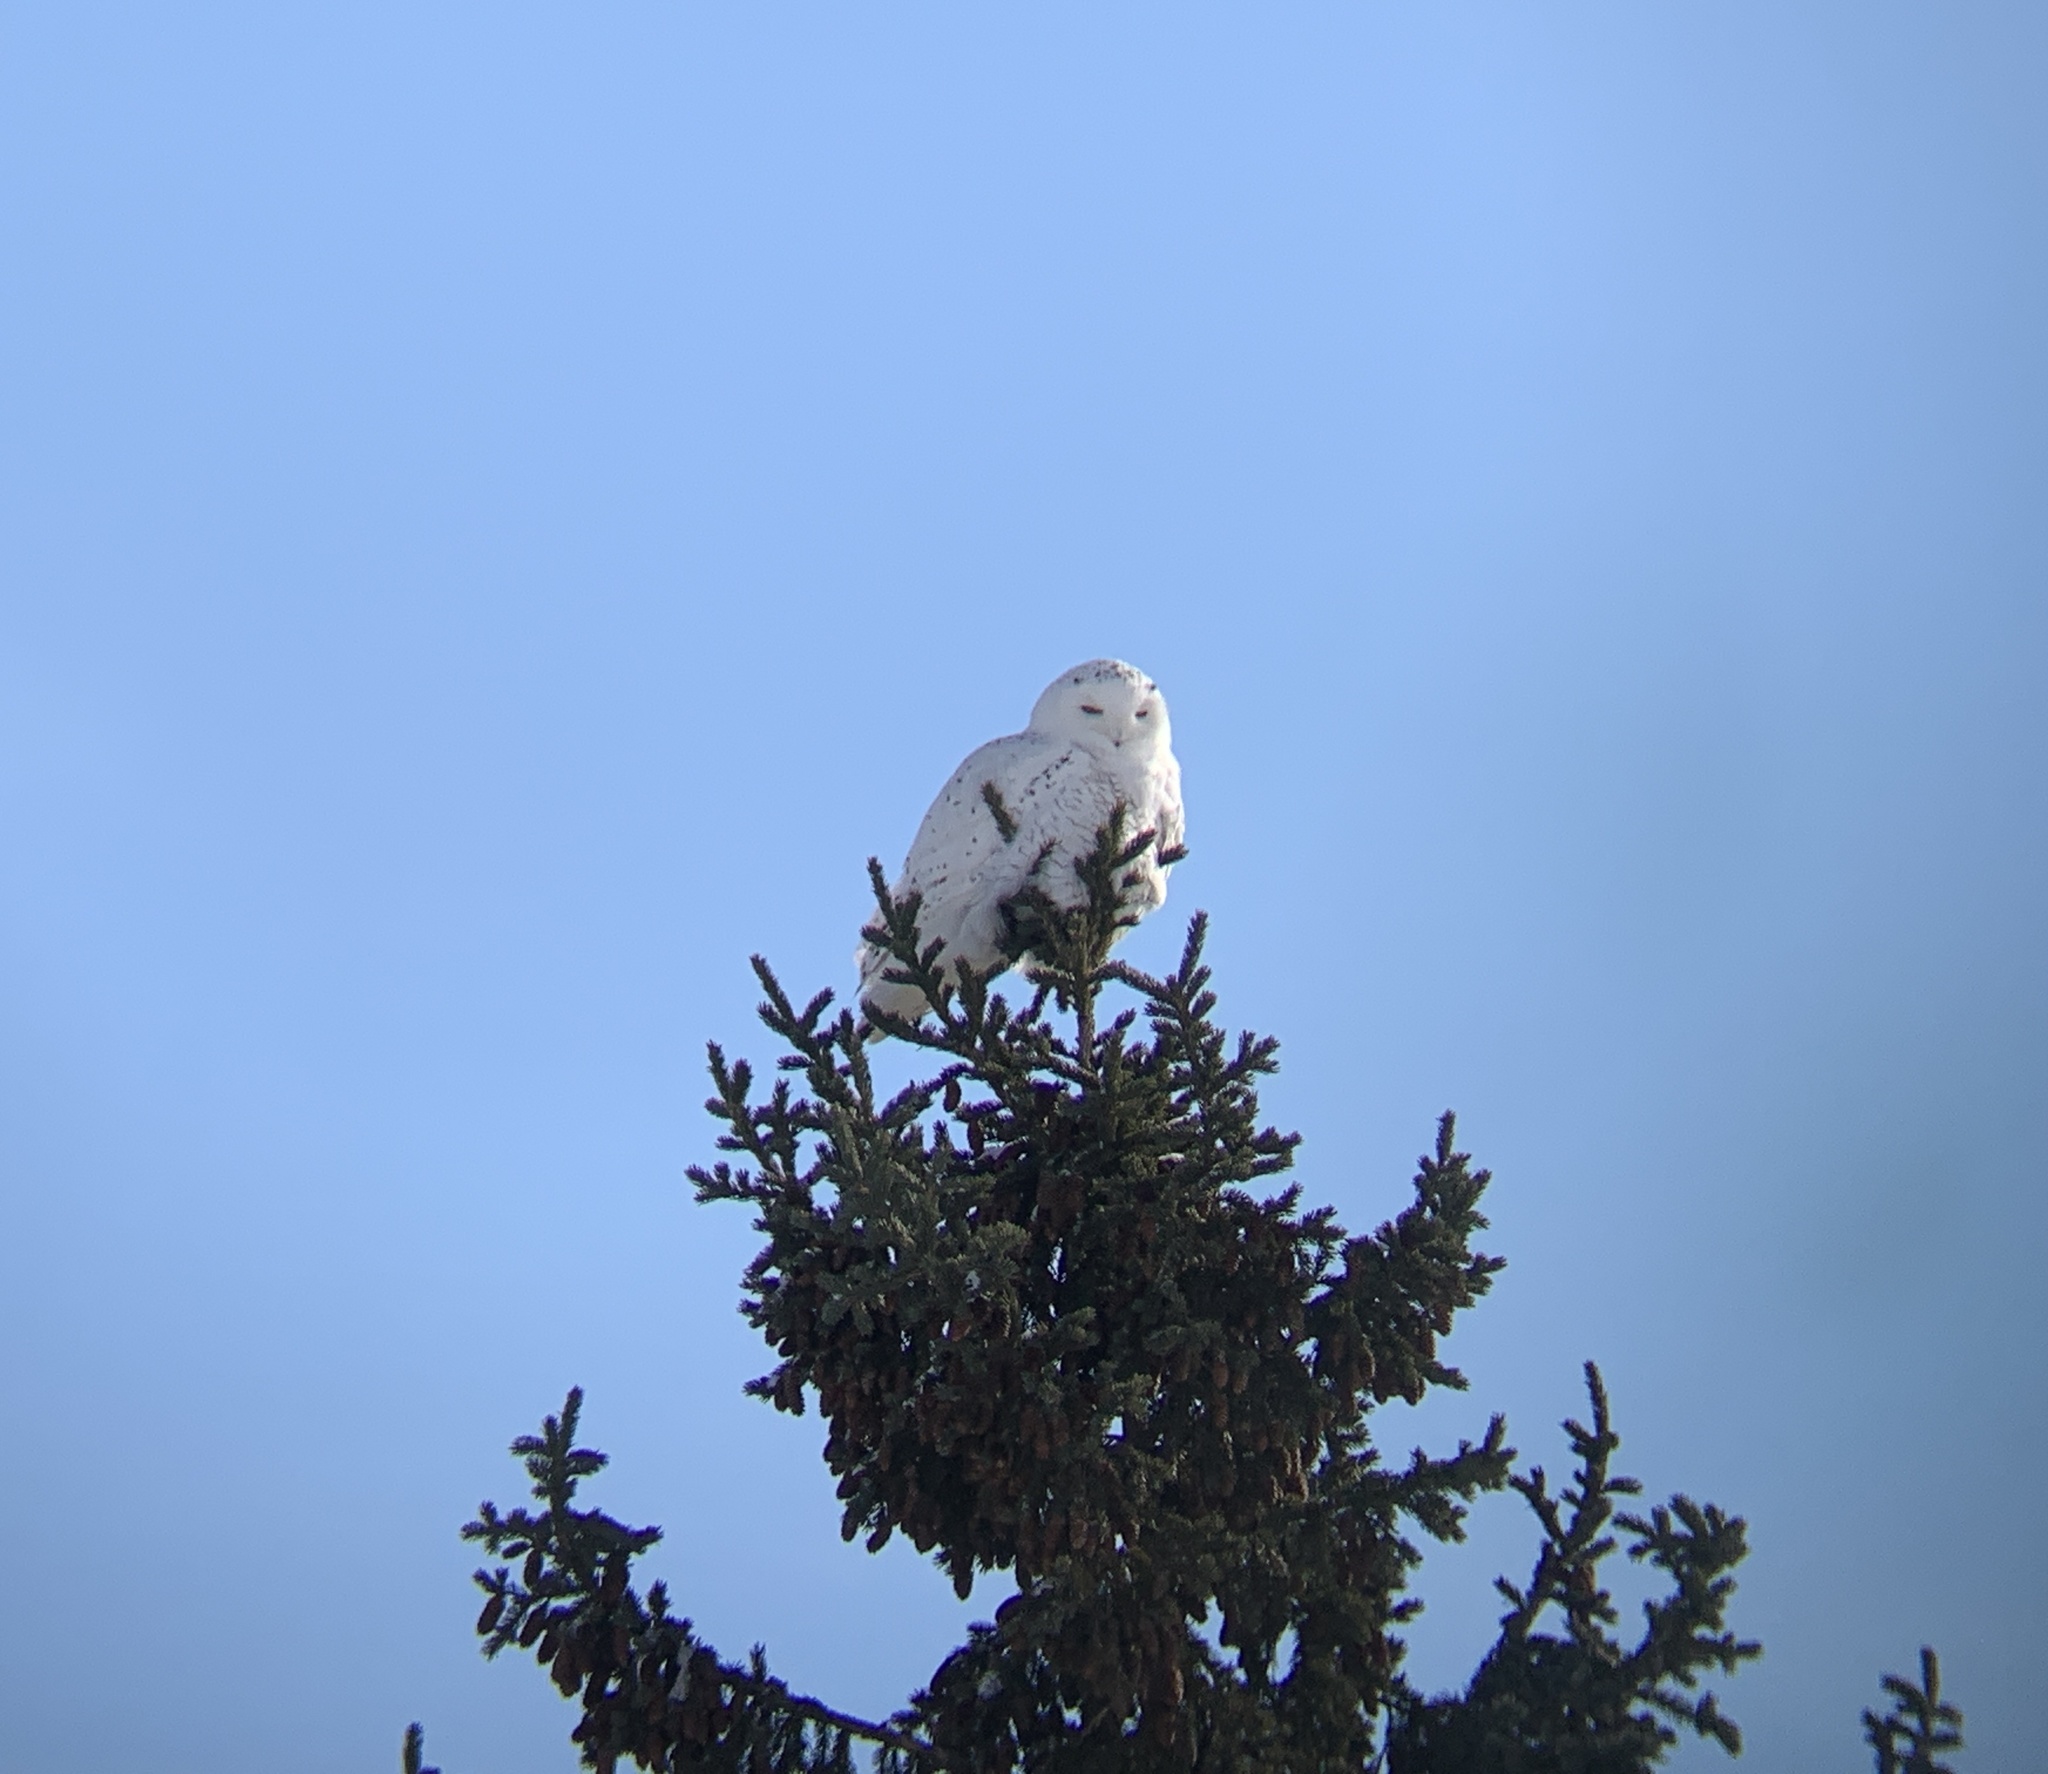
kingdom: Animalia
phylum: Chordata
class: Aves
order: Strigiformes
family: Strigidae
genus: Bubo
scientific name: Bubo scandiacus
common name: Snowy owl
